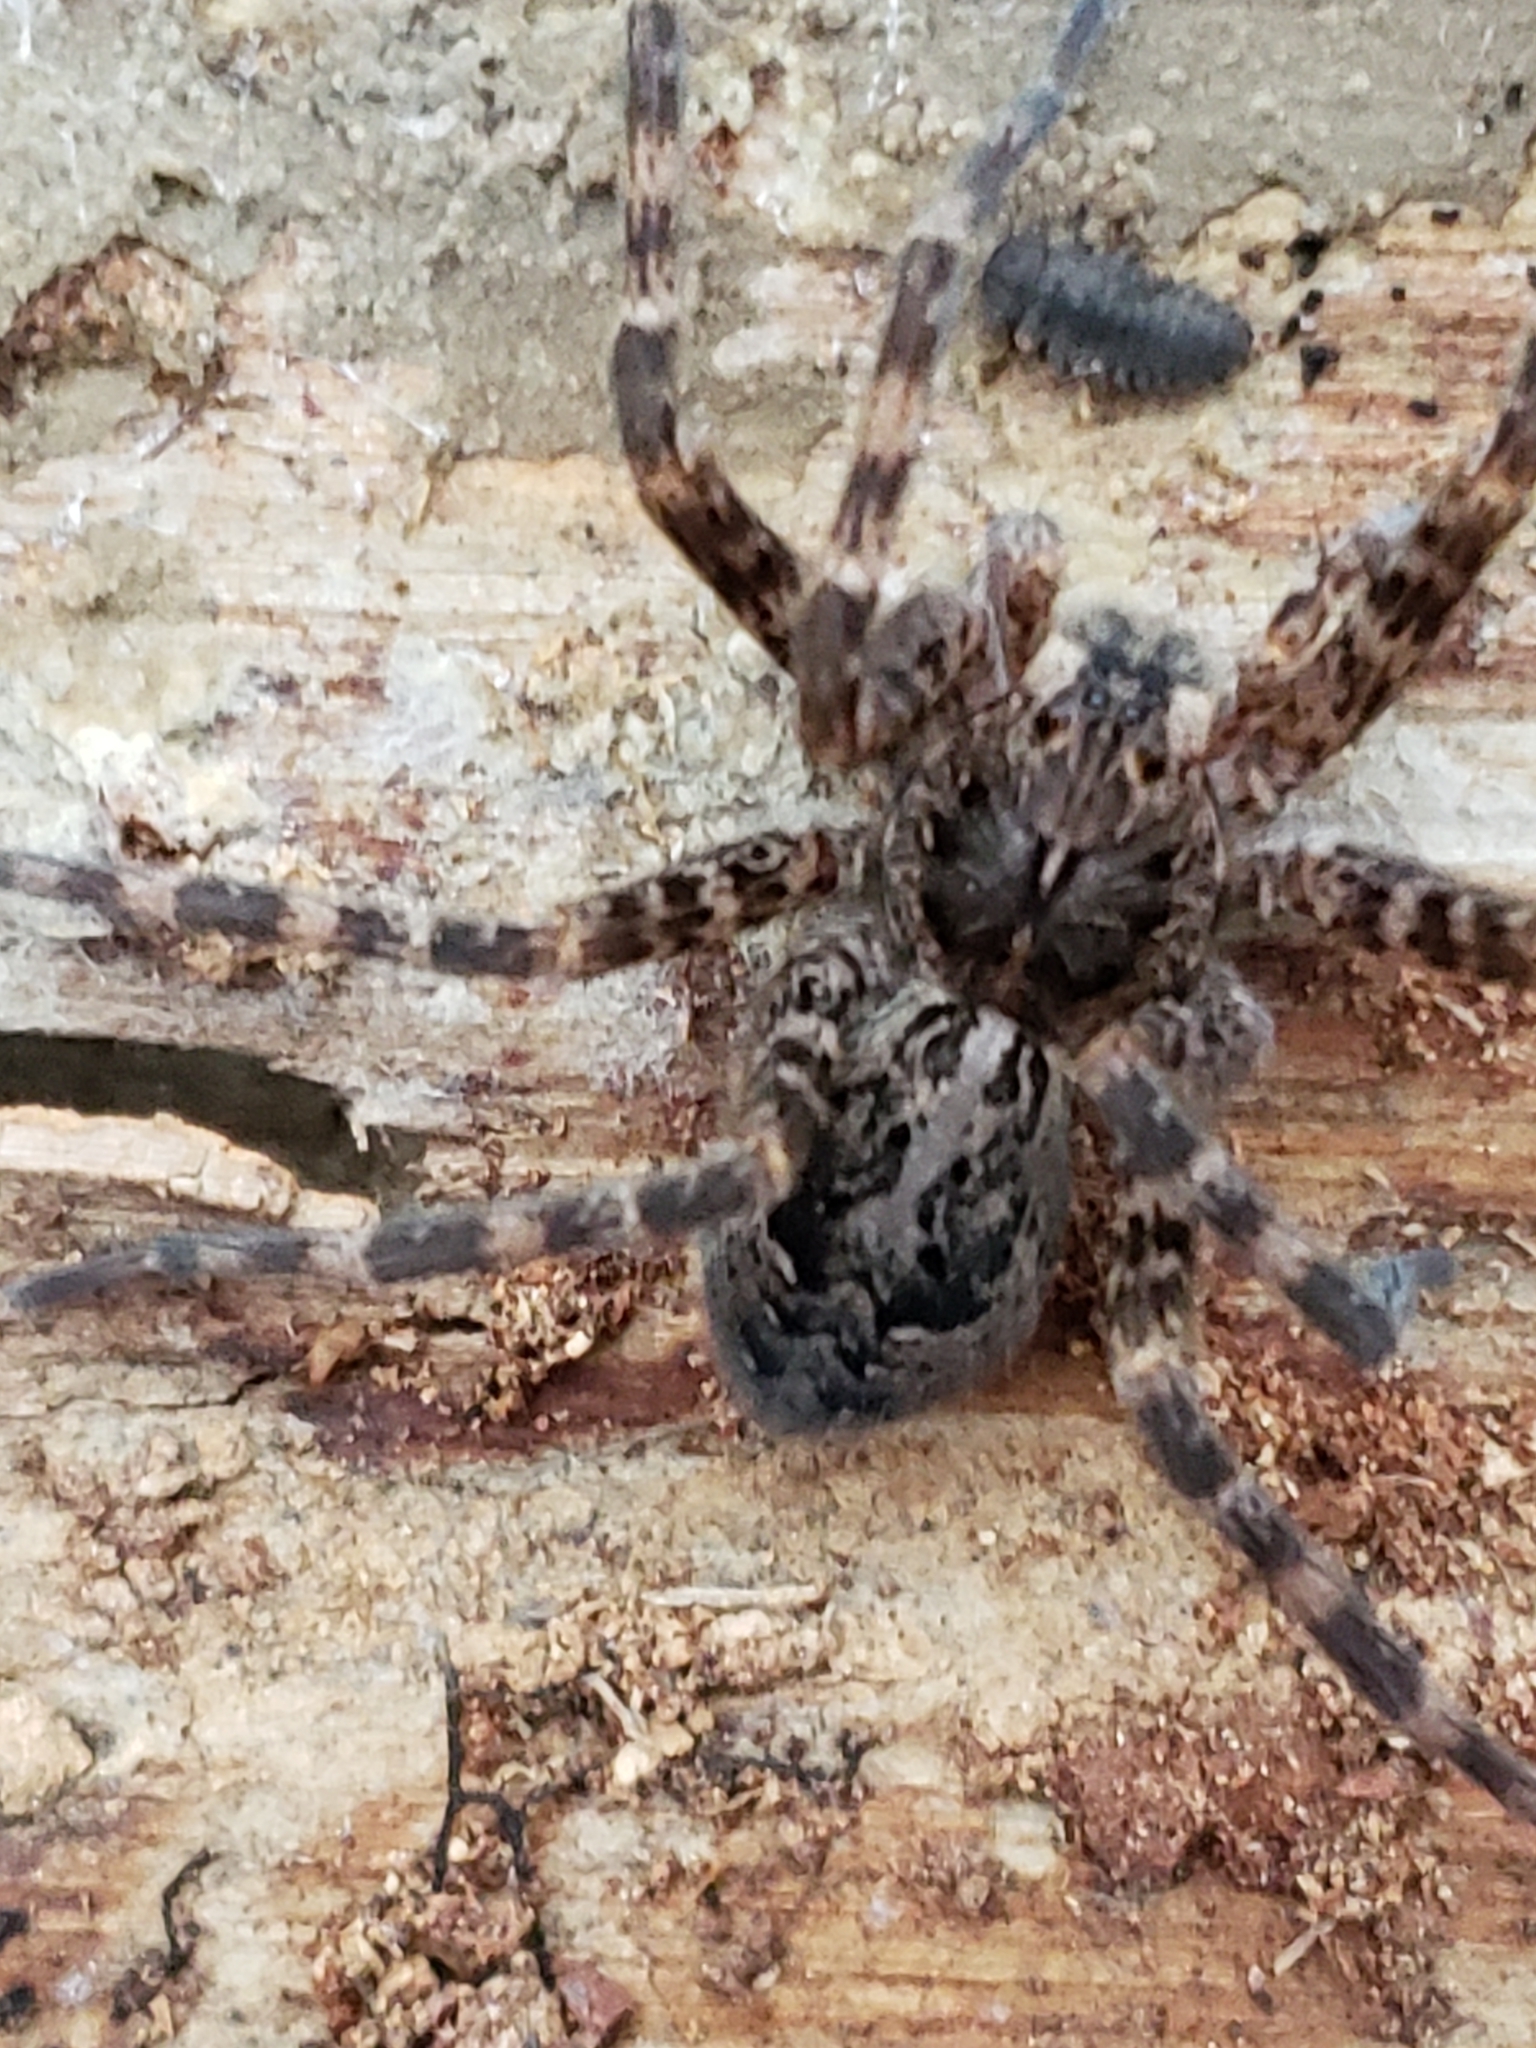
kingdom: Animalia
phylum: Arthropoda
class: Arachnida
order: Araneae
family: Pisauridae
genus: Dolomedes
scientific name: Dolomedes tenebrosus
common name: Dark fishing spider
